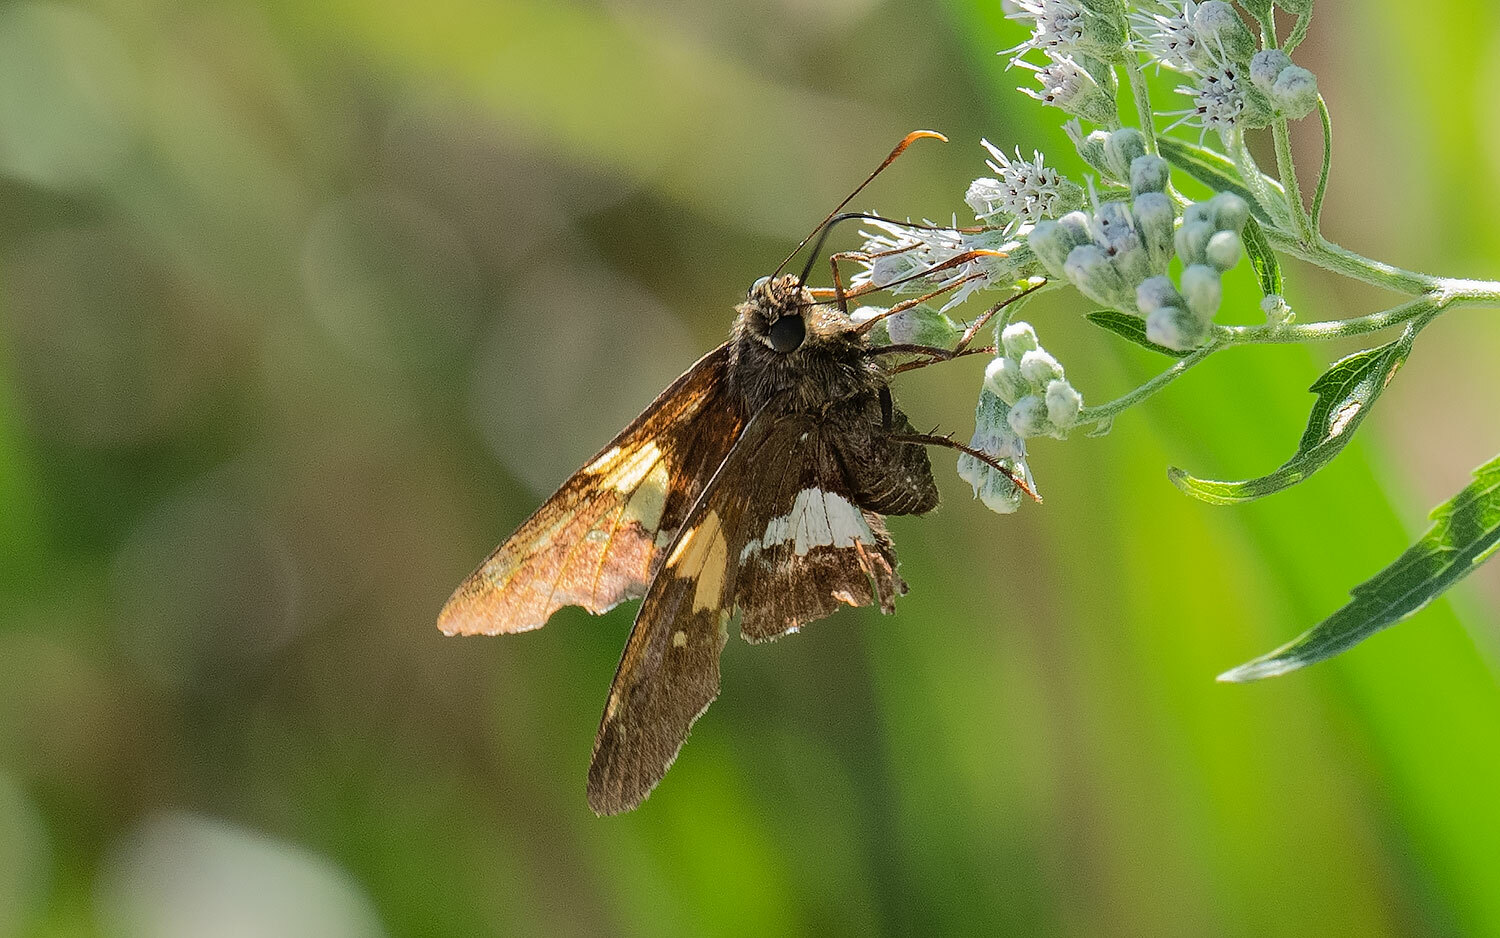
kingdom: Animalia
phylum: Arthropoda
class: Insecta
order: Lepidoptera
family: Hesperiidae
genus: Epargyreus
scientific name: Epargyreus clarus
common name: Silver-spotted skipper
